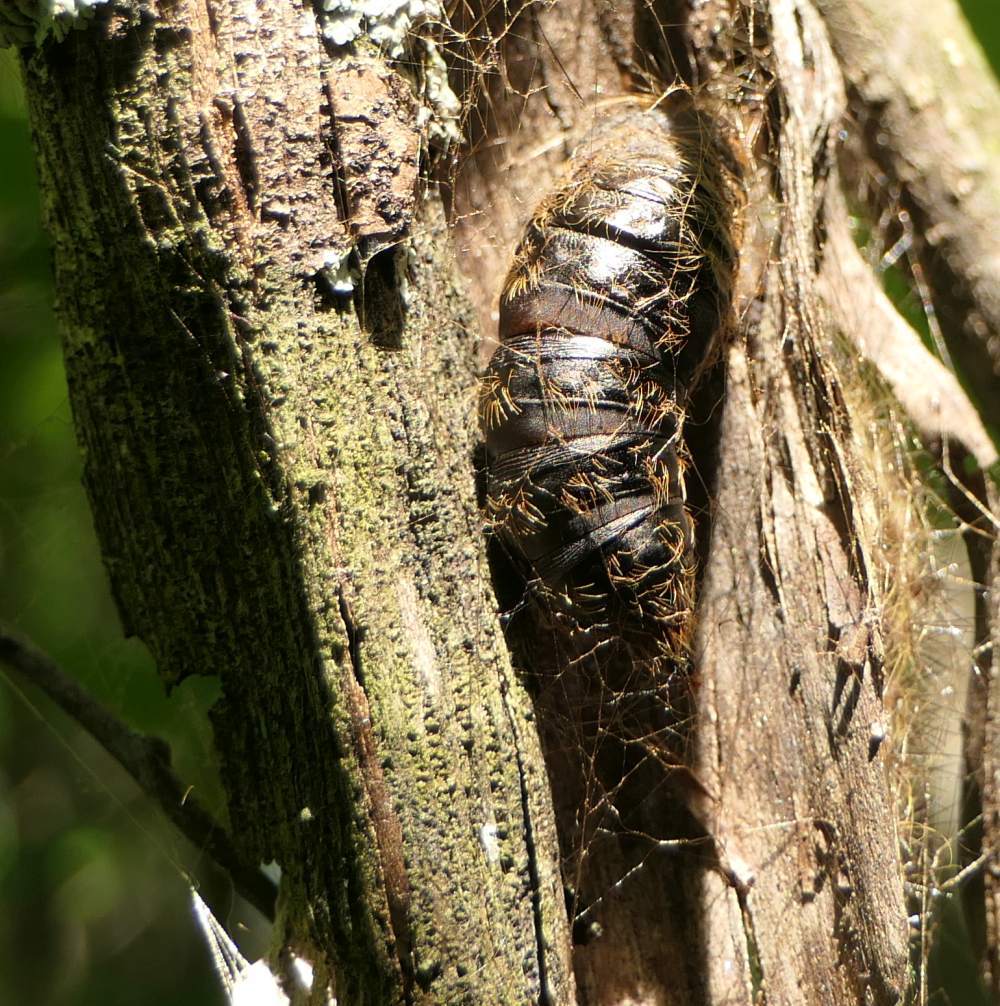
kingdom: Animalia
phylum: Arthropoda
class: Insecta
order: Lepidoptera
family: Erebidae
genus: Lymantria
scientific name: Lymantria dispar
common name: Gypsy moth
